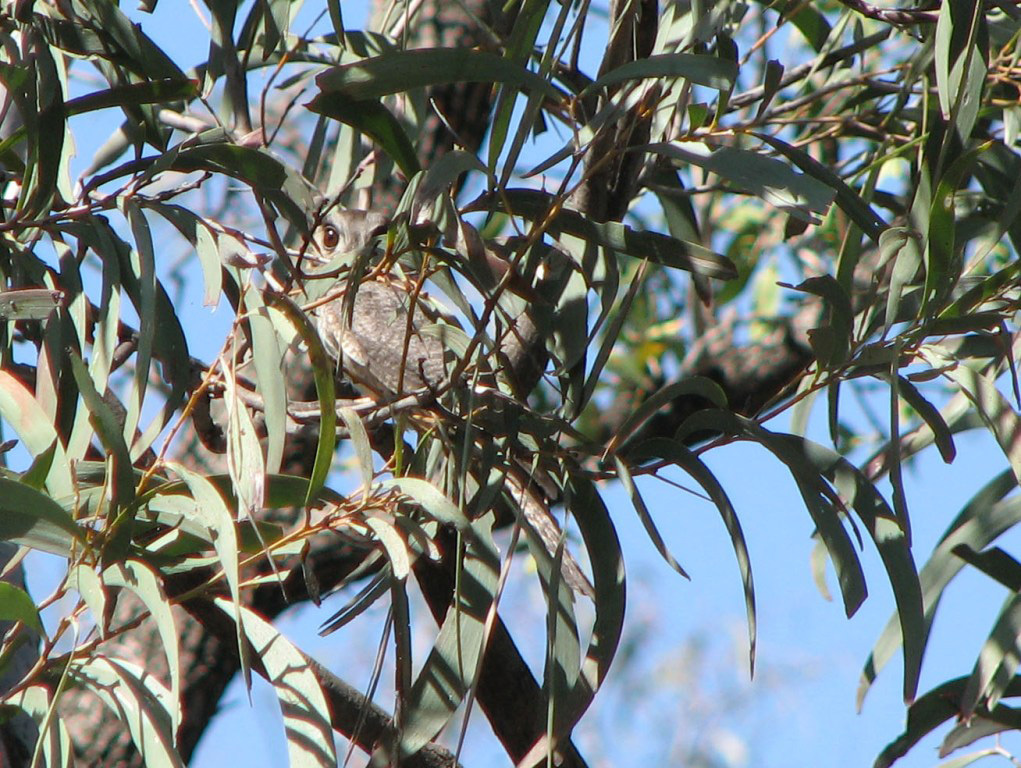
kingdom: Animalia
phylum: Chordata
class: Aves
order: Apodiformes
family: Aegothelidae
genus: Aegotheles
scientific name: Aegotheles cristatus
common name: Australian owlet-nightjar
